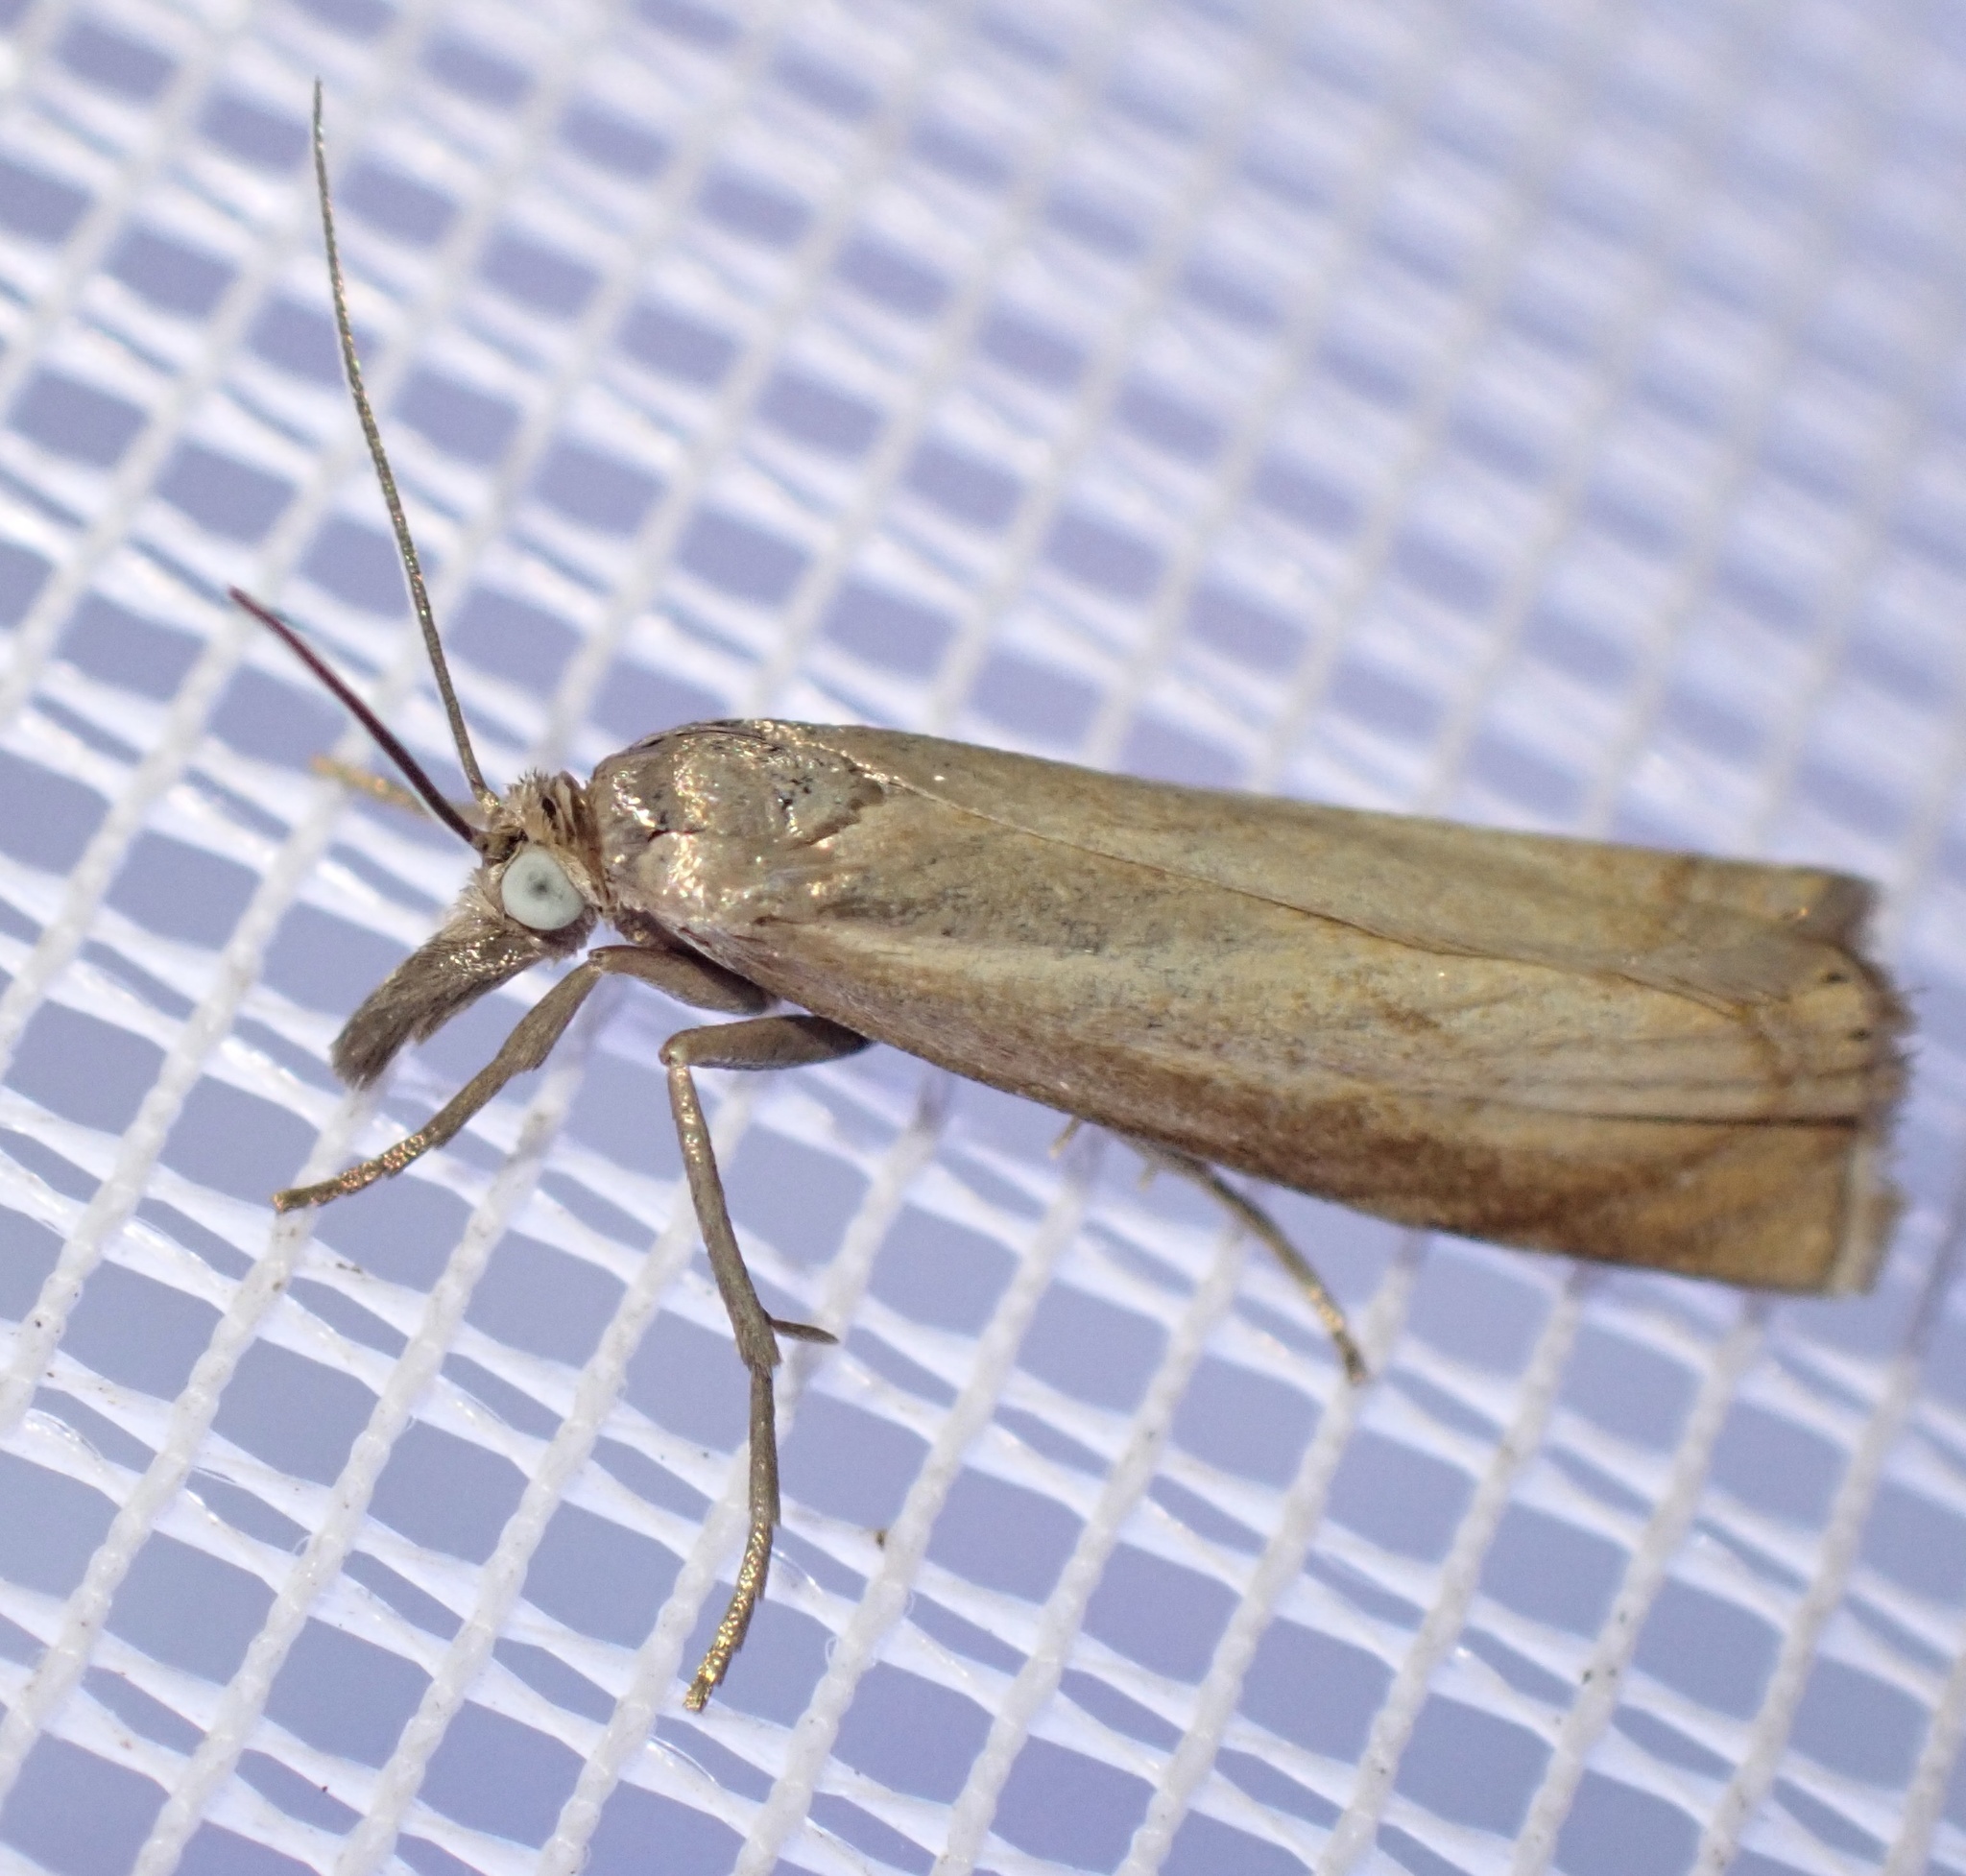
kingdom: Animalia
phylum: Arthropoda
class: Insecta
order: Lepidoptera
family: Crambidae
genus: Chrysoteuchia
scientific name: Chrysoteuchia culmella
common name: Garden grass-veneer
